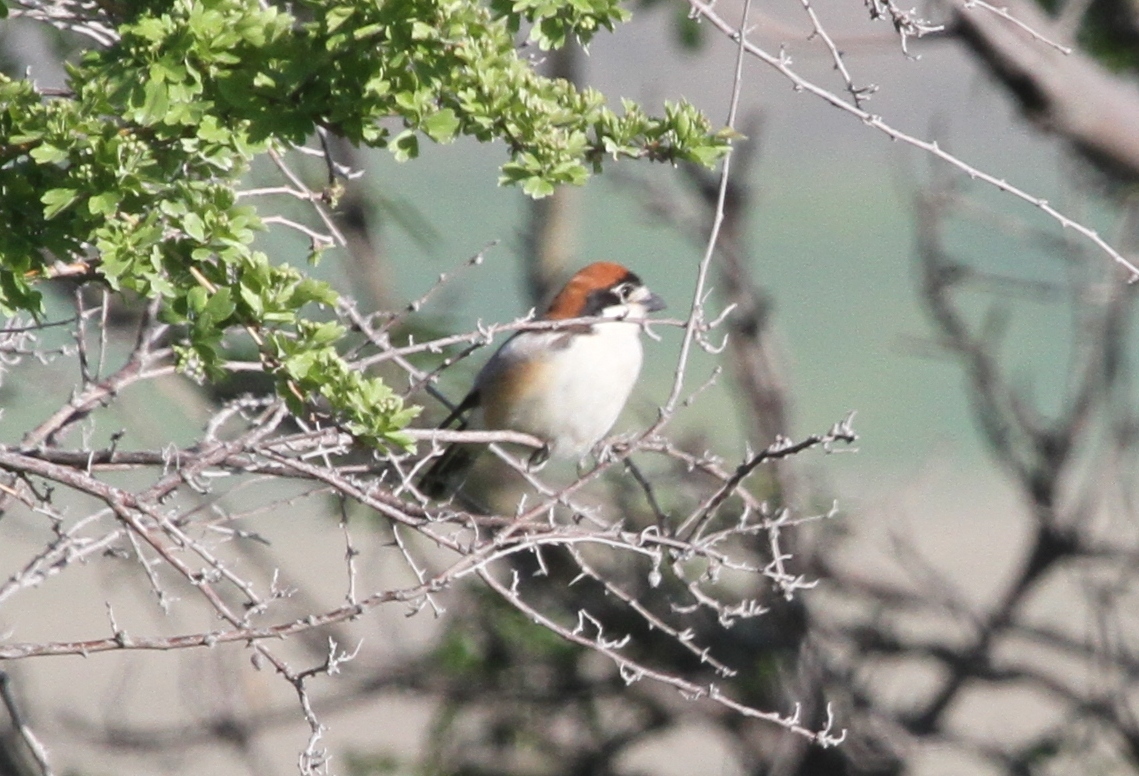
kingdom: Animalia
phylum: Chordata
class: Aves
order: Passeriformes
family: Laniidae
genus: Lanius
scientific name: Lanius senator
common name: Woodchat shrike
